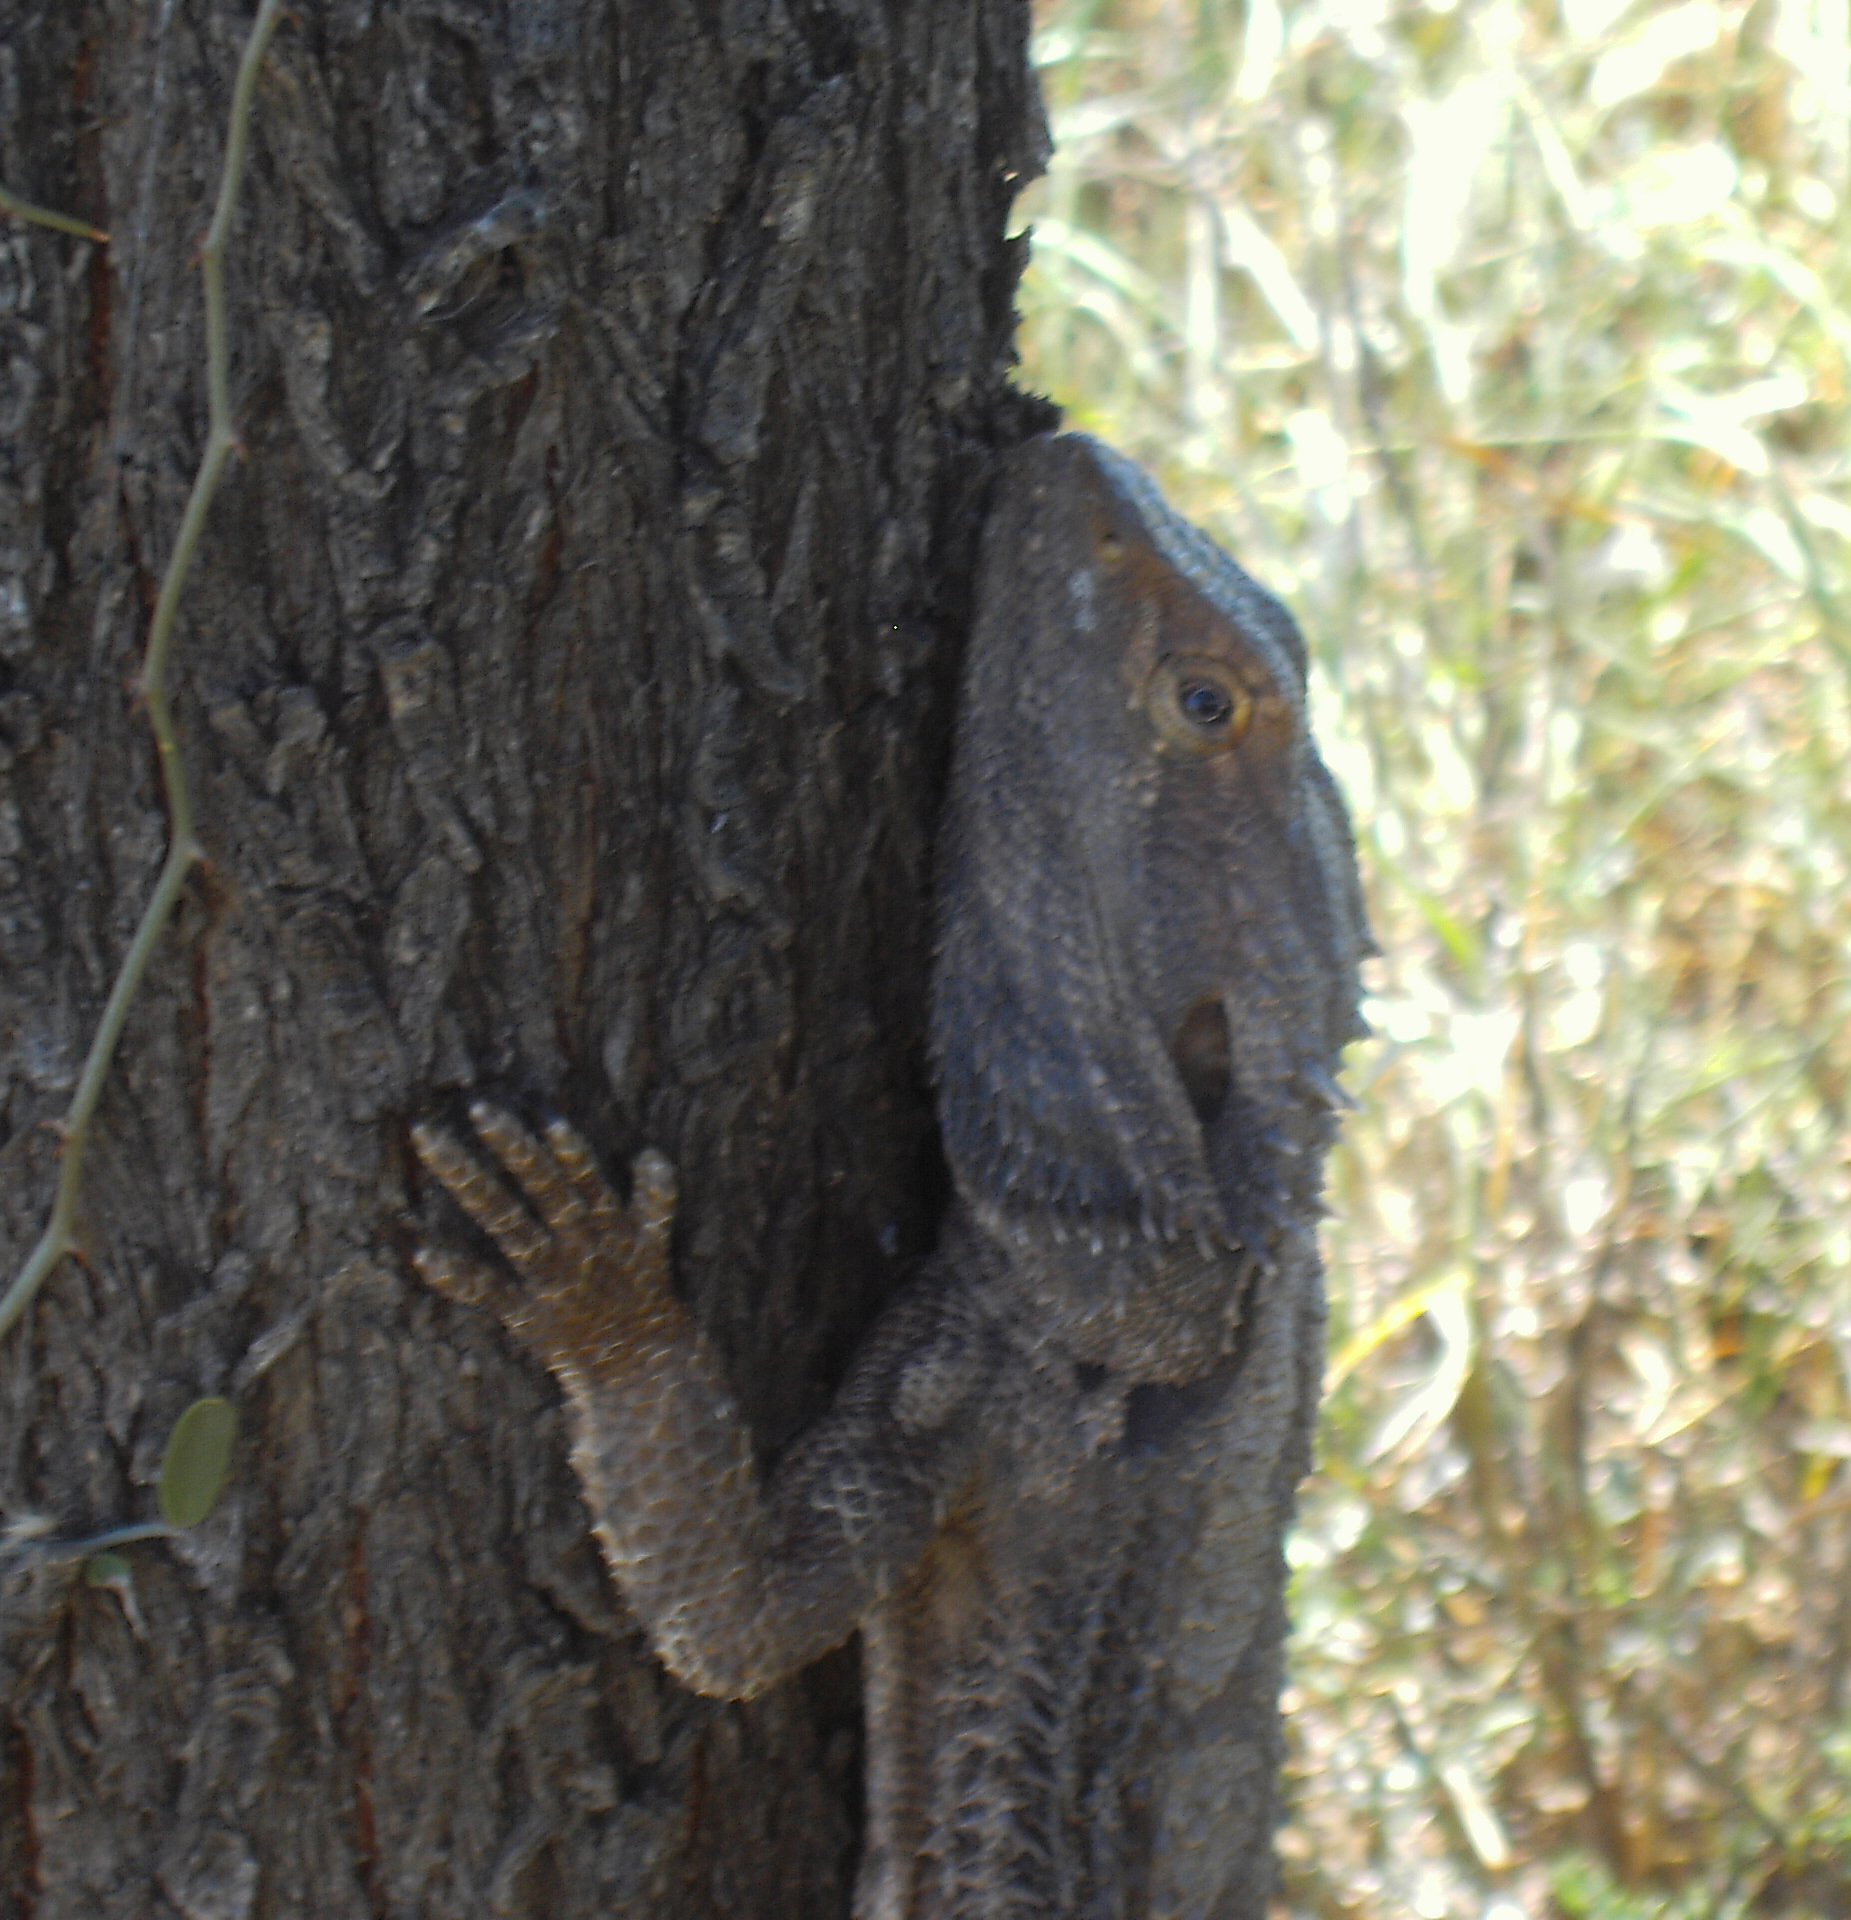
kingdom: Animalia
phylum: Chordata
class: Squamata
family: Agamidae
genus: Pogona
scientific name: Pogona barbata
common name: Bearded dragon
